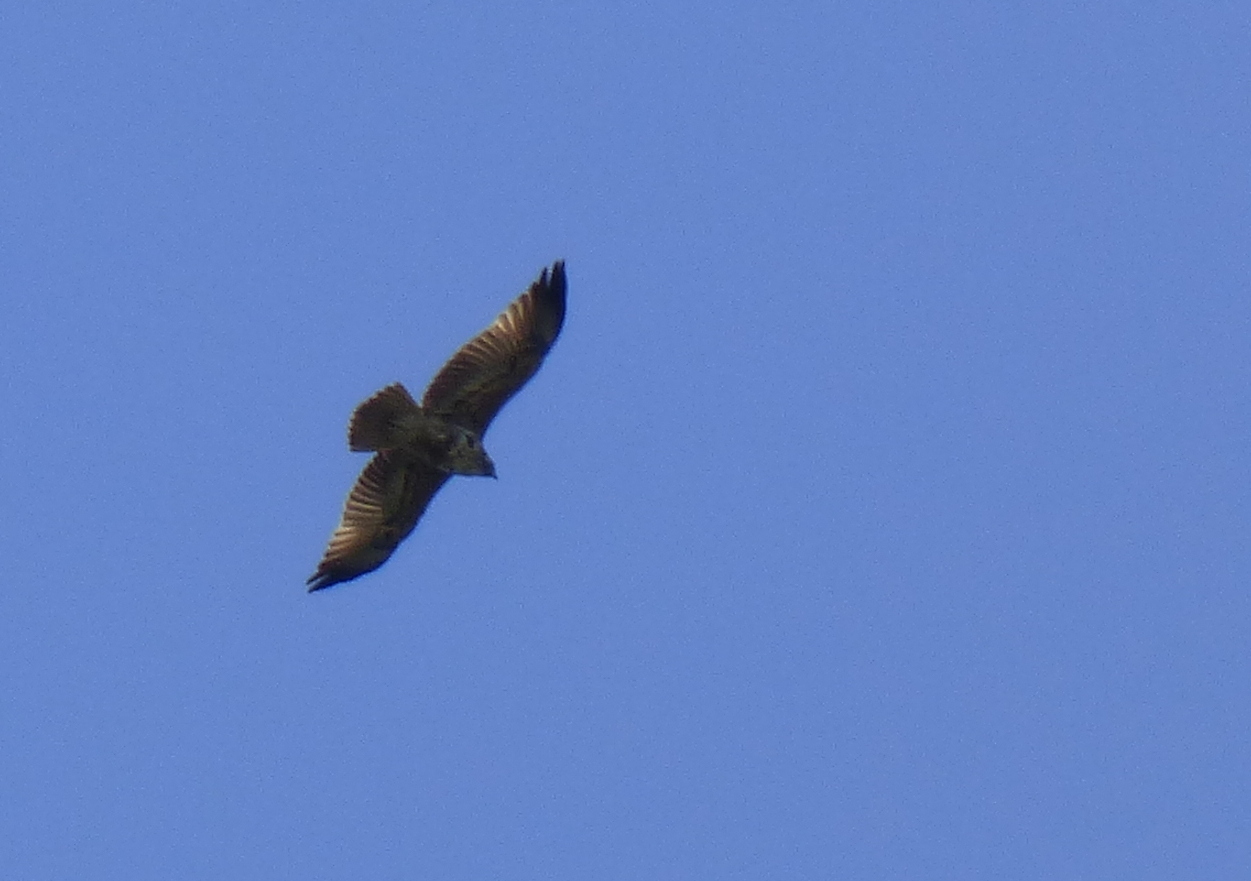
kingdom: Animalia
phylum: Chordata
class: Aves
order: Accipitriformes
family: Accipitridae
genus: Geranoaetus
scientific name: Geranoaetus melanoleucus
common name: Black-chested buzzard-eagle
